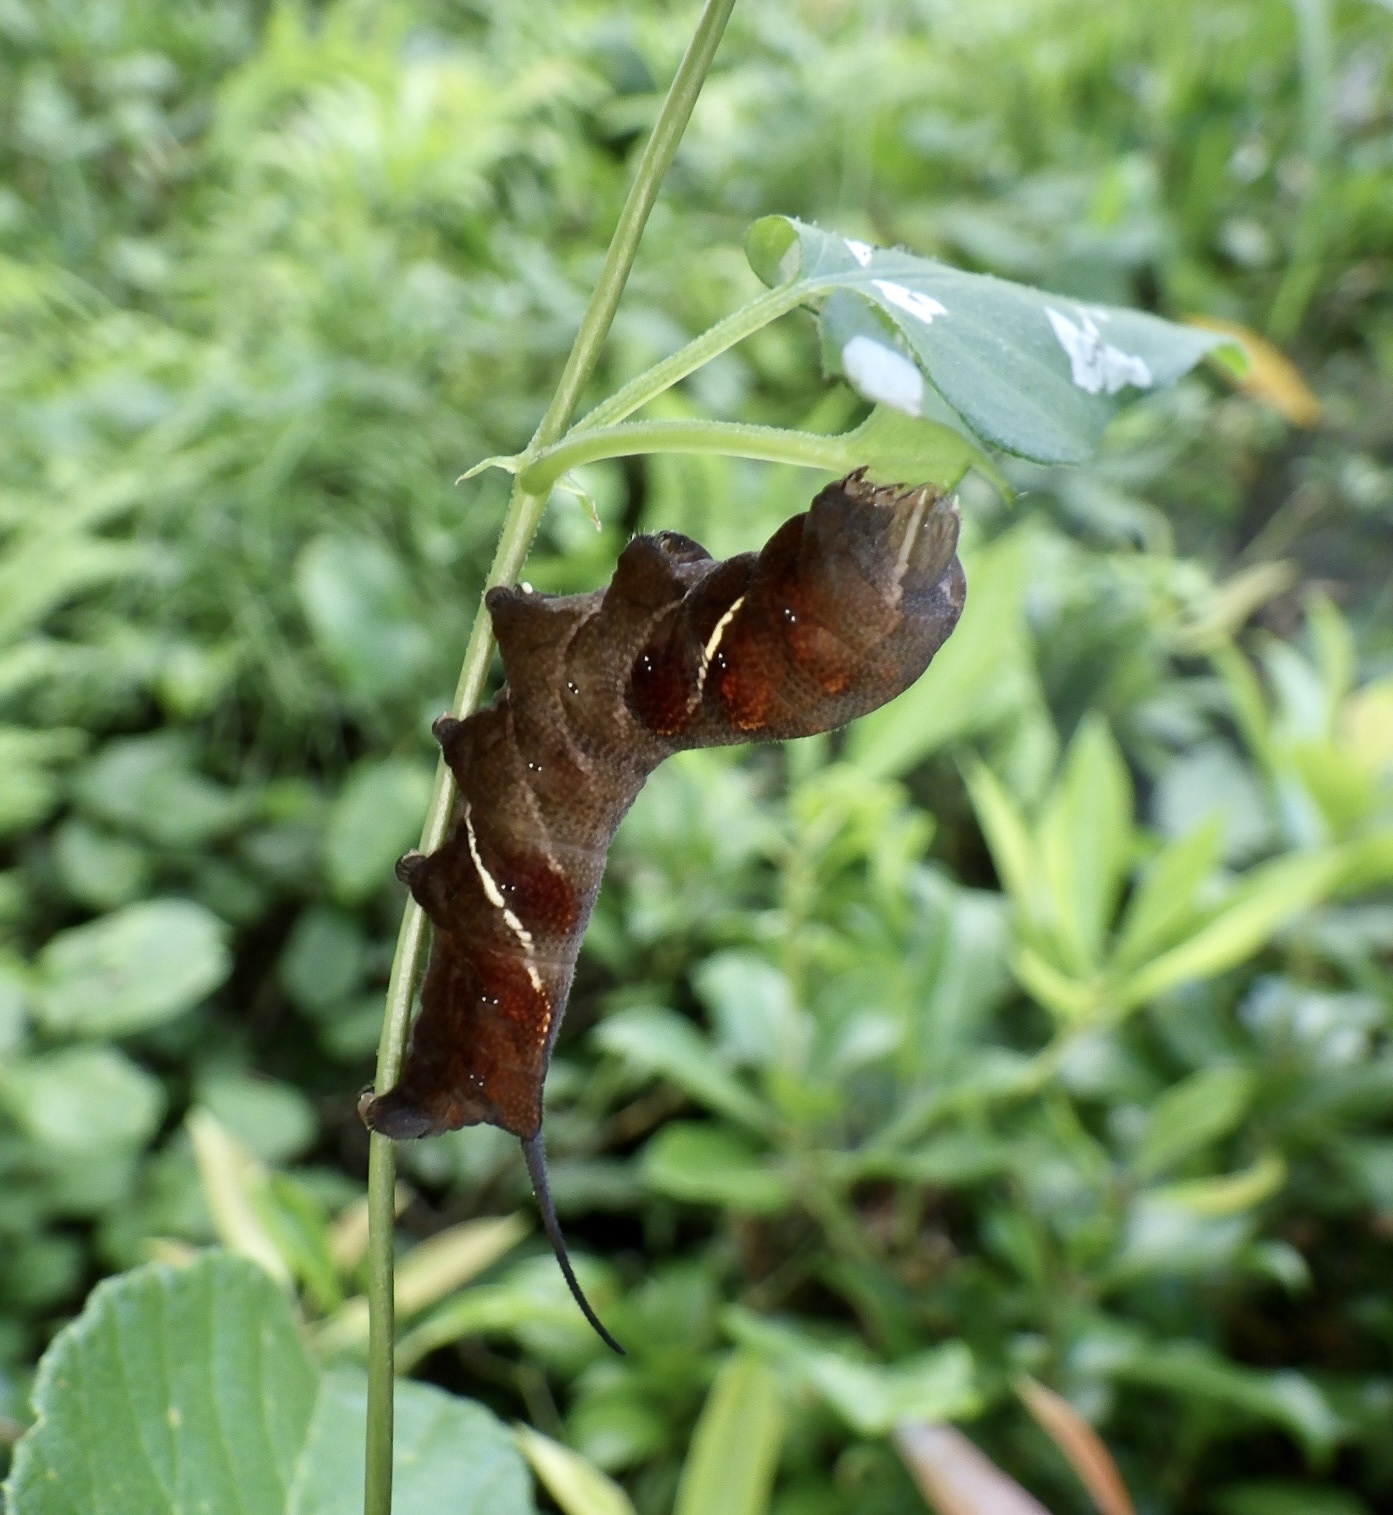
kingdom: Animalia
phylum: Arthropoda
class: Insecta
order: Lepidoptera
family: Sphingidae
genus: Neogurelca
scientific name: Neogurelca himachala
